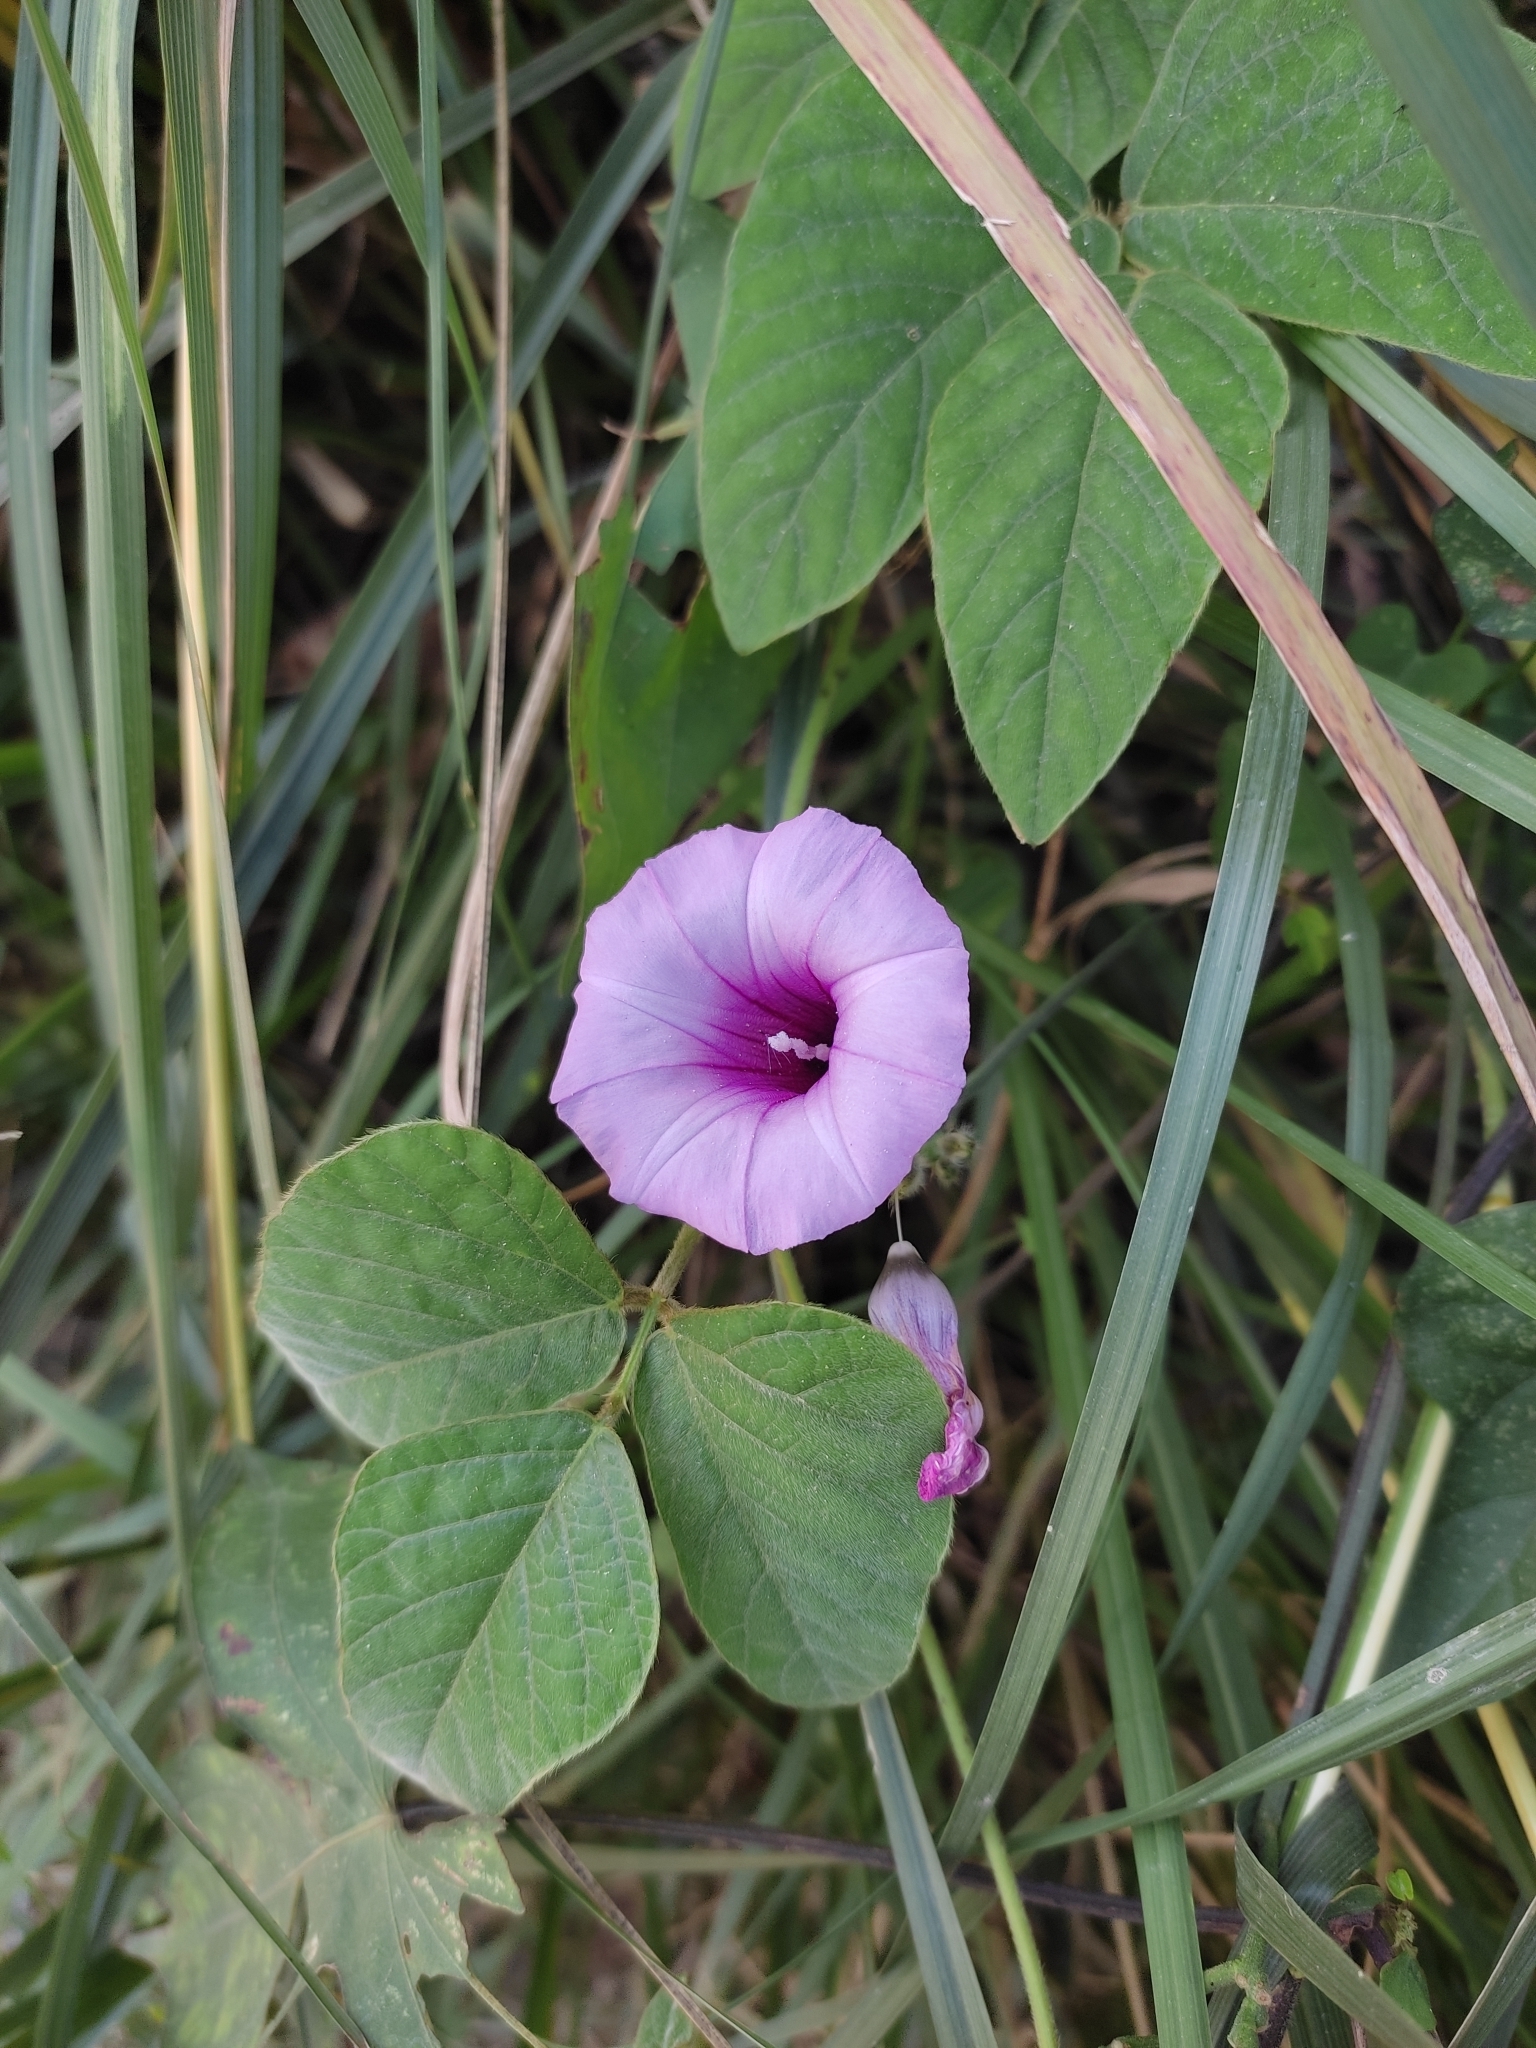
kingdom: Plantae
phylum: Tracheophyta
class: Magnoliopsida
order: Solanales
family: Convolvulaceae
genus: Ipomoea
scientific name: Ipomoea trifida
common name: Cotton morningglory
